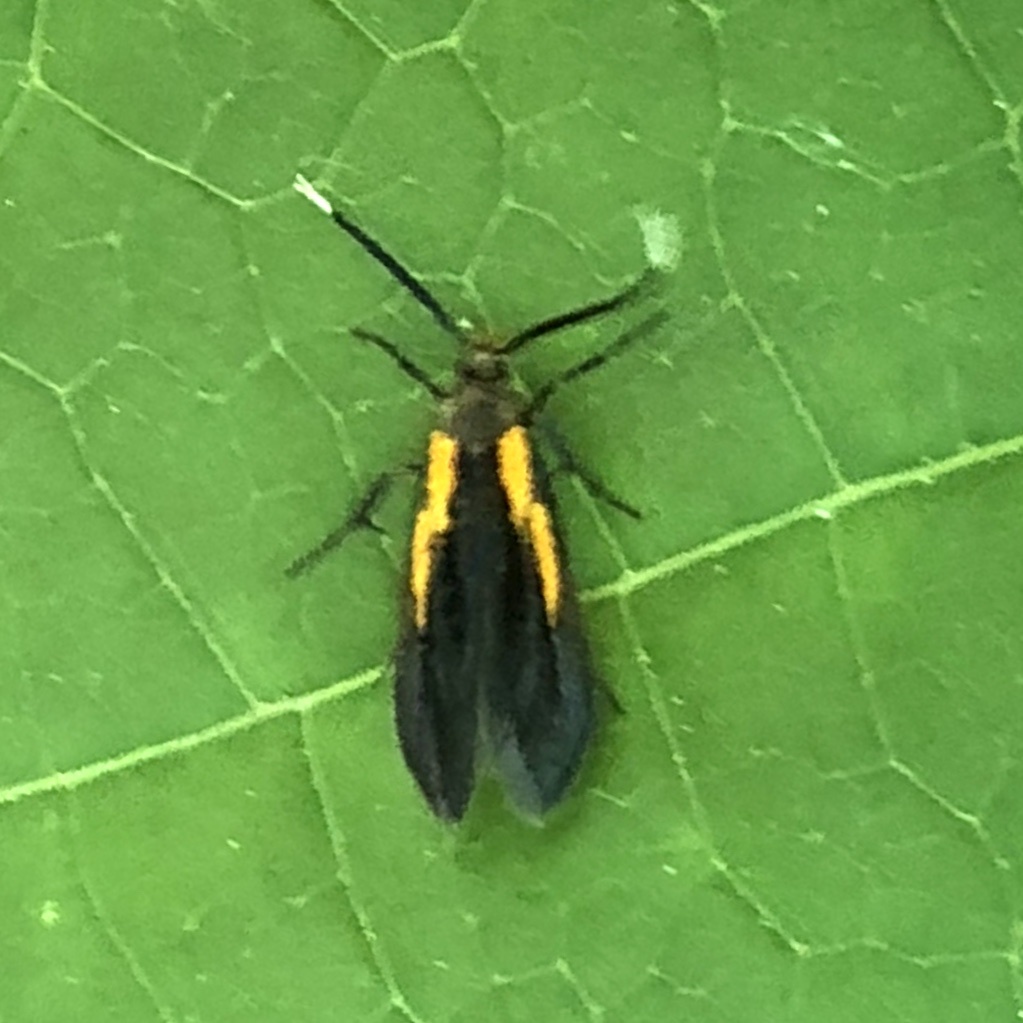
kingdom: Animalia
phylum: Arthropoda
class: Insecta
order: Lepidoptera
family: Oecophoridae
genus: Mathildana
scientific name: Mathildana newmanella
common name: Newman's mathildana moth
